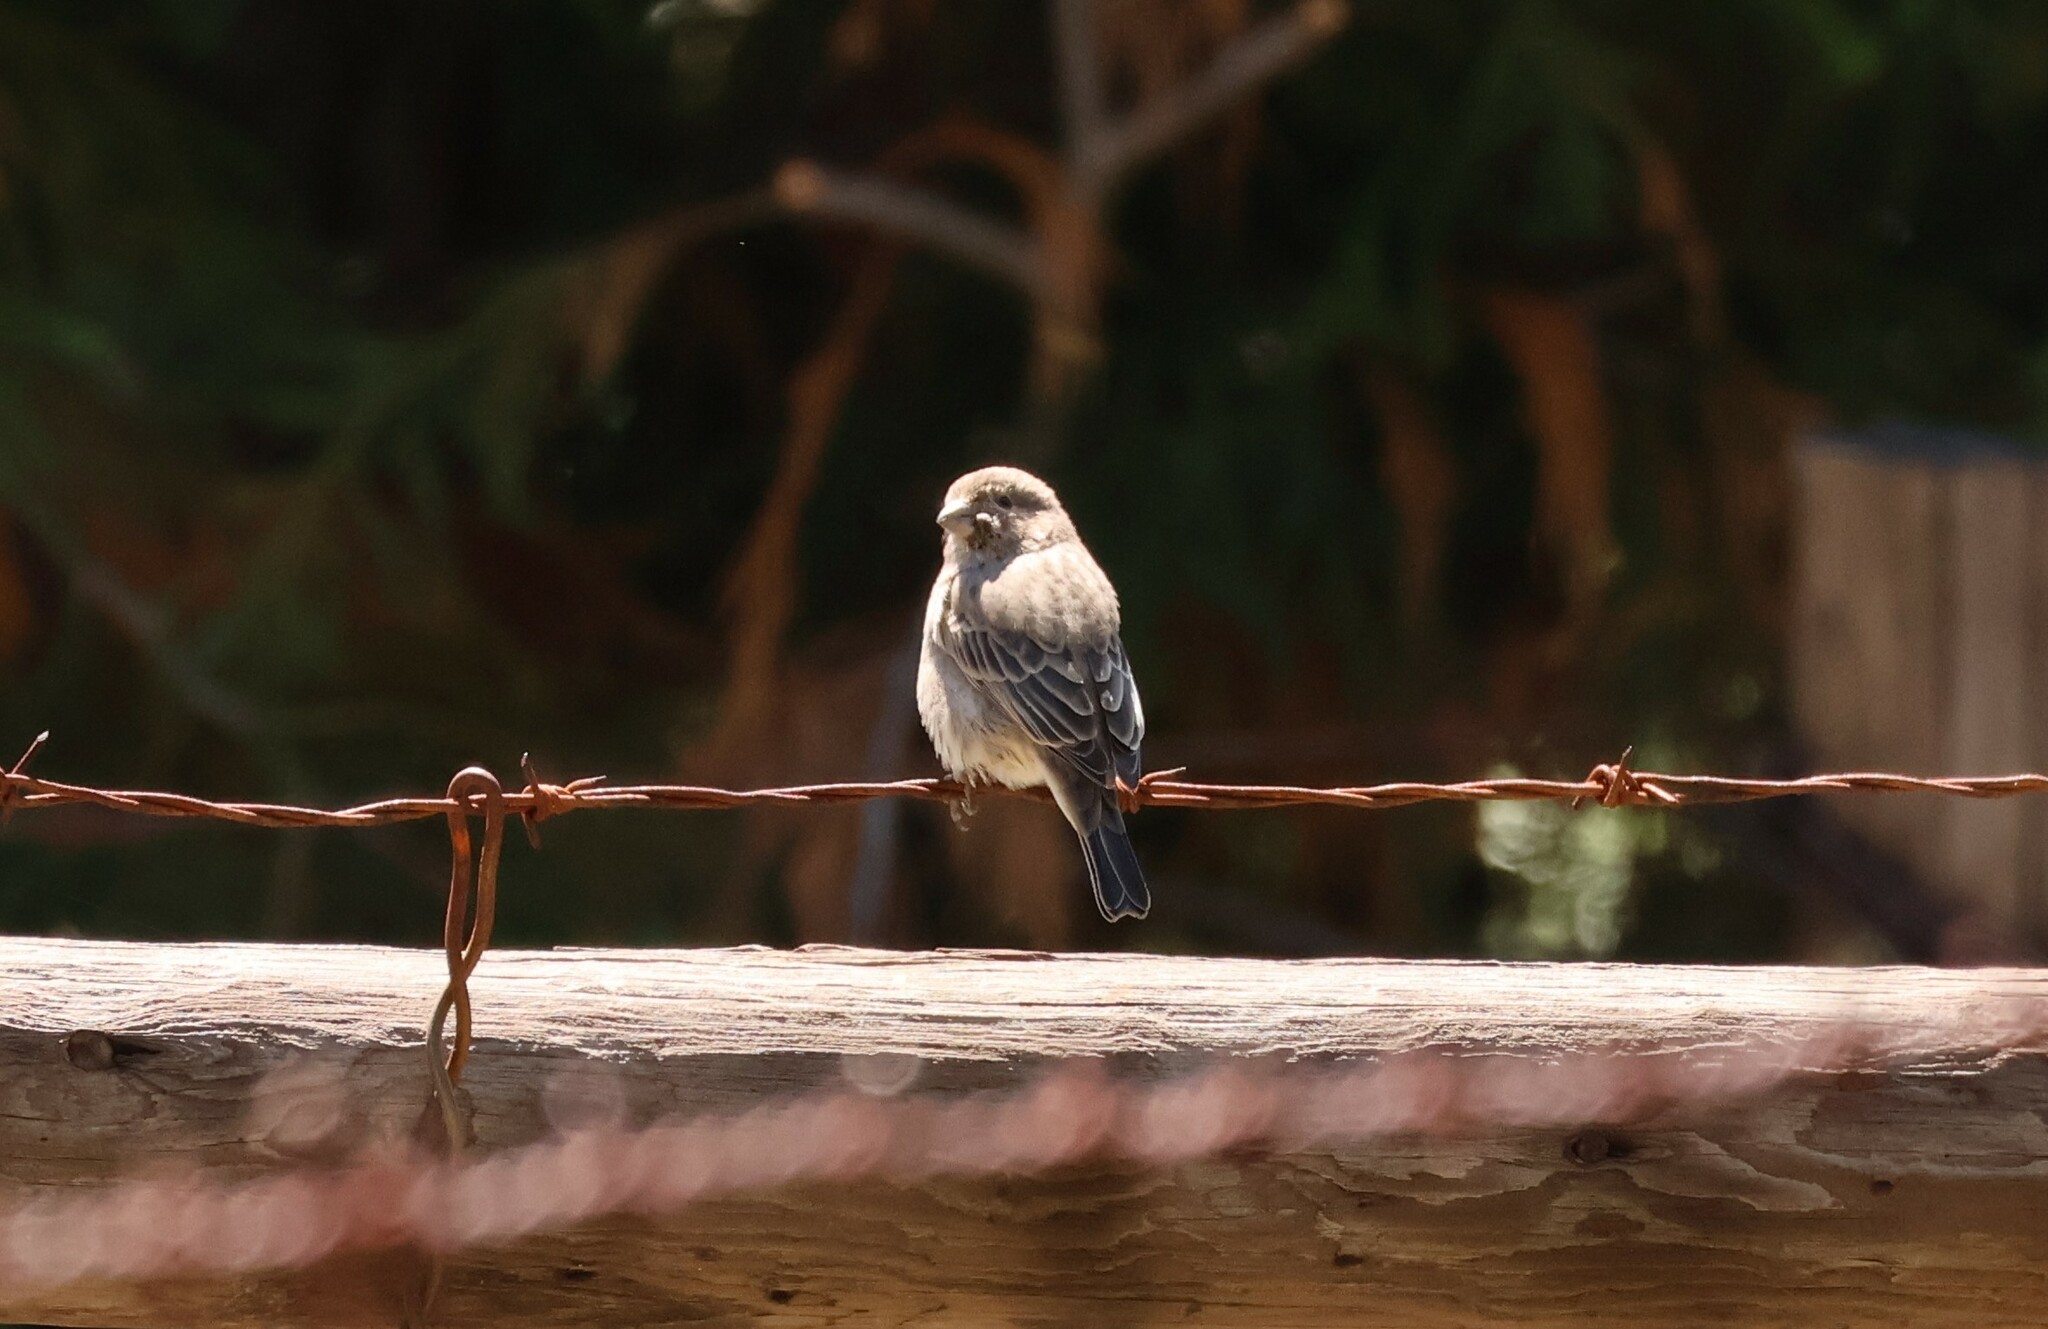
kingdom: Animalia
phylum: Chordata
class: Aves
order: Passeriformes
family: Fringillidae
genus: Haemorhous
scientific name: Haemorhous mexicanus
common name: House finch
